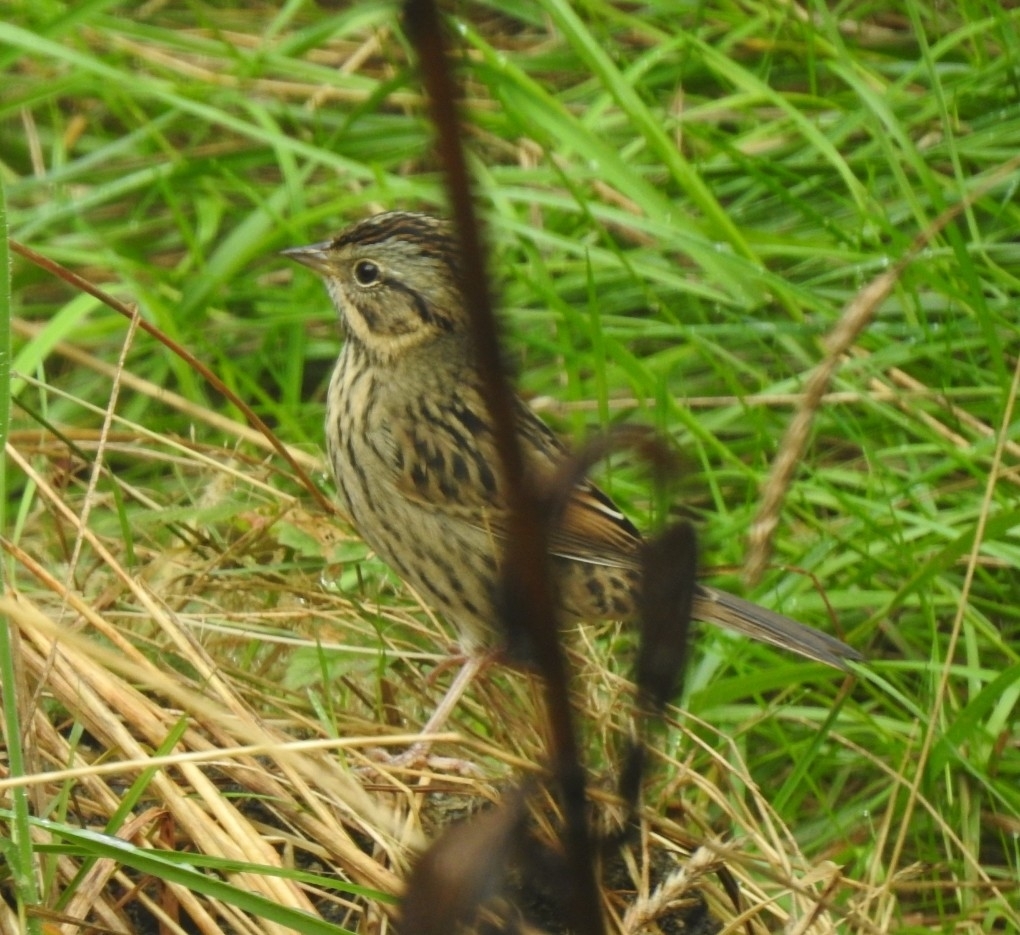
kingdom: Animalia
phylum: Chordata
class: Aves
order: Passeriformes
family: Passerellidae
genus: Melospiza
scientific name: Melospiza lincolnii
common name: Lincoln's sparrow
